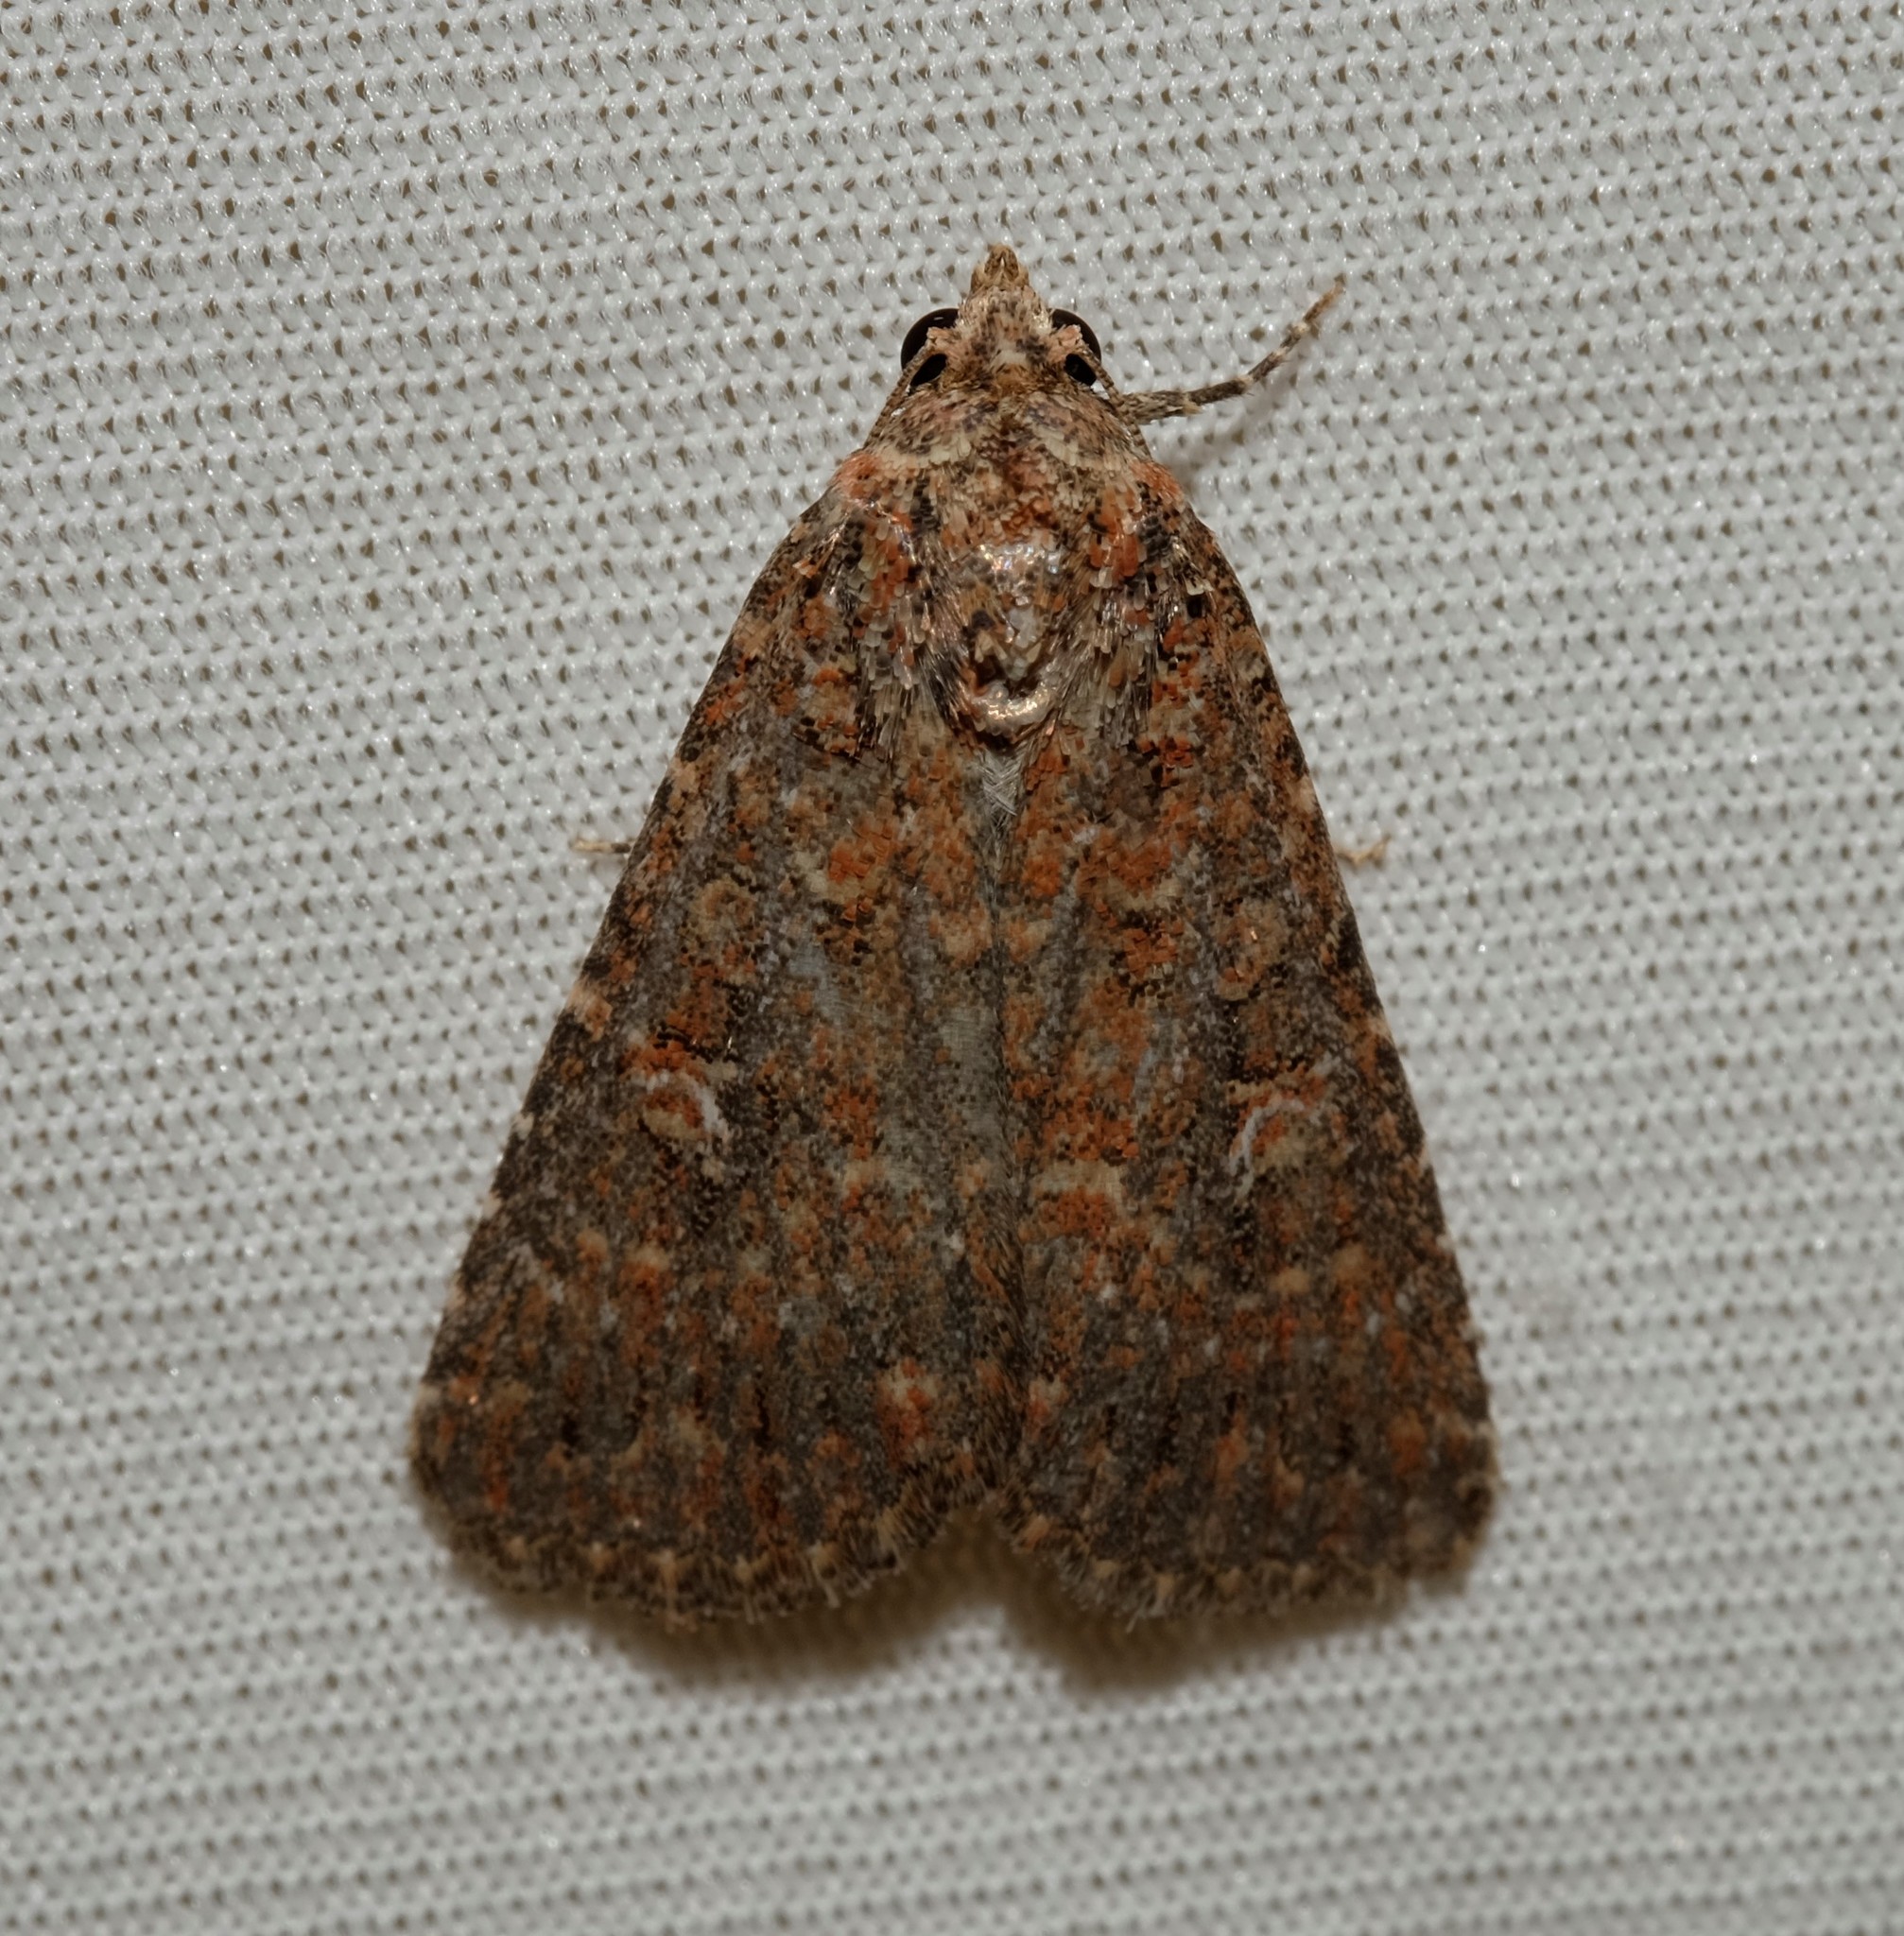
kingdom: Animalia
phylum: Arthropoda
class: Insecta
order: Lepidoptera
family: Noctuidae
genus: Hypoperigea
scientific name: Hypoperigea tonsa
